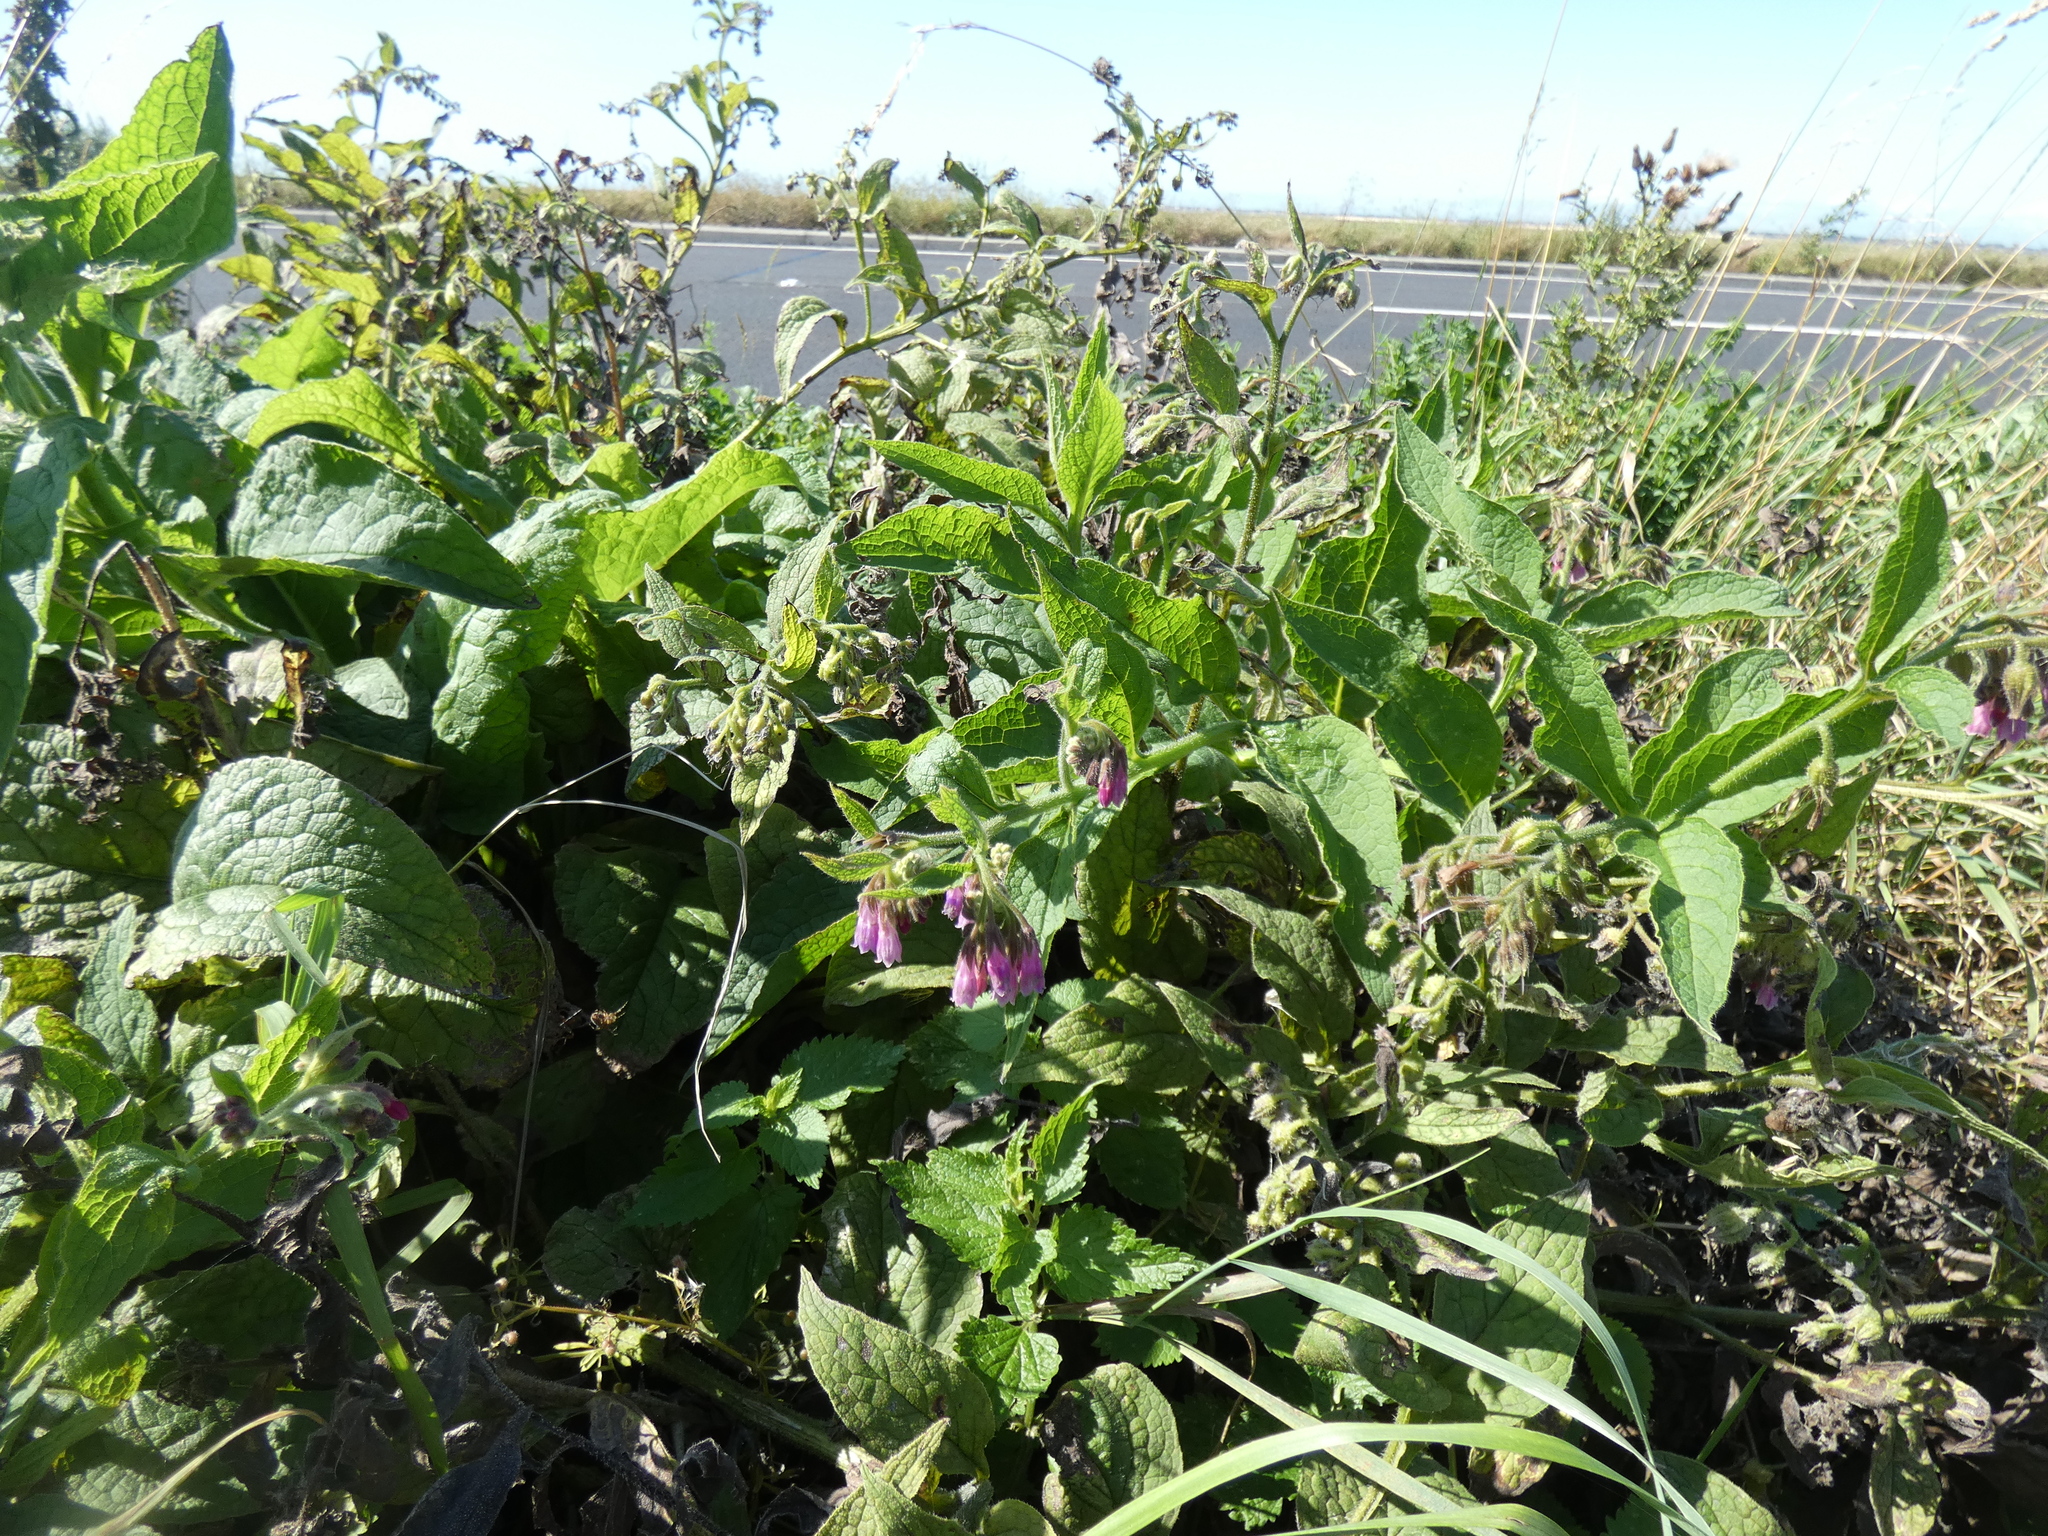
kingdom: Plantae
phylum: Tracheophyta
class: Magnoliopsida
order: Boraginales
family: Boraginaceae
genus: Symphytum
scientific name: Symphytum uplandicum
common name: Russian comfrey
